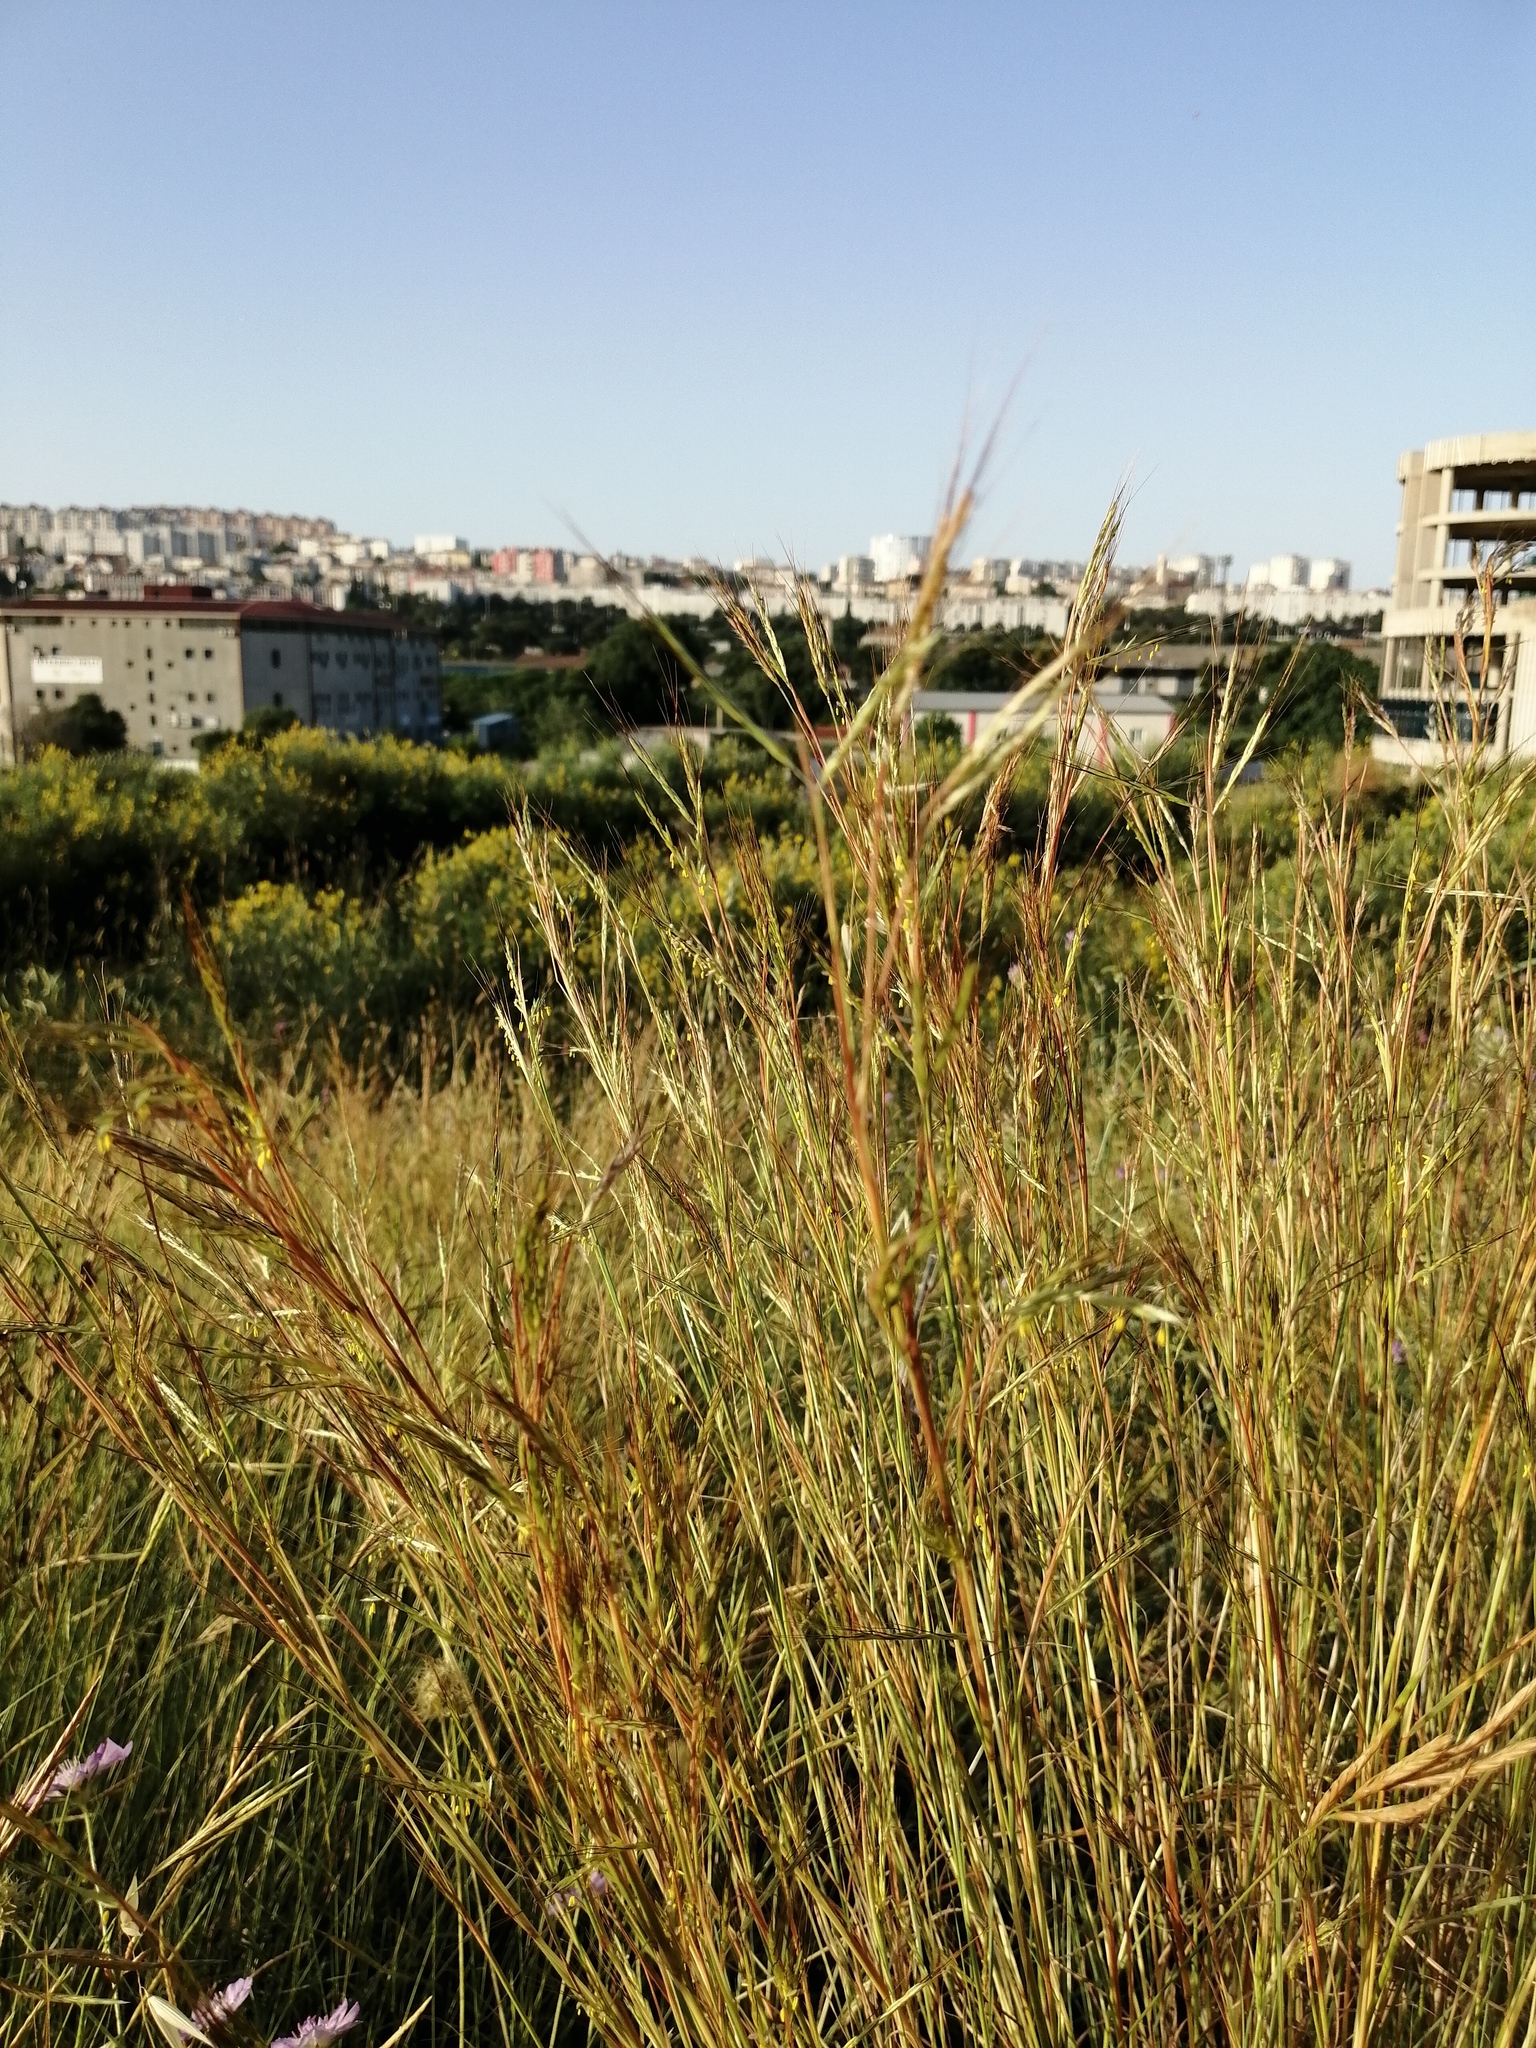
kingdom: Plantae
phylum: Tracheophyta
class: Liliopsida
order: Poales
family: Poaceae
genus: Hyparrhenia
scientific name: Hyparrhenia hirta
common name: Thatching grass
